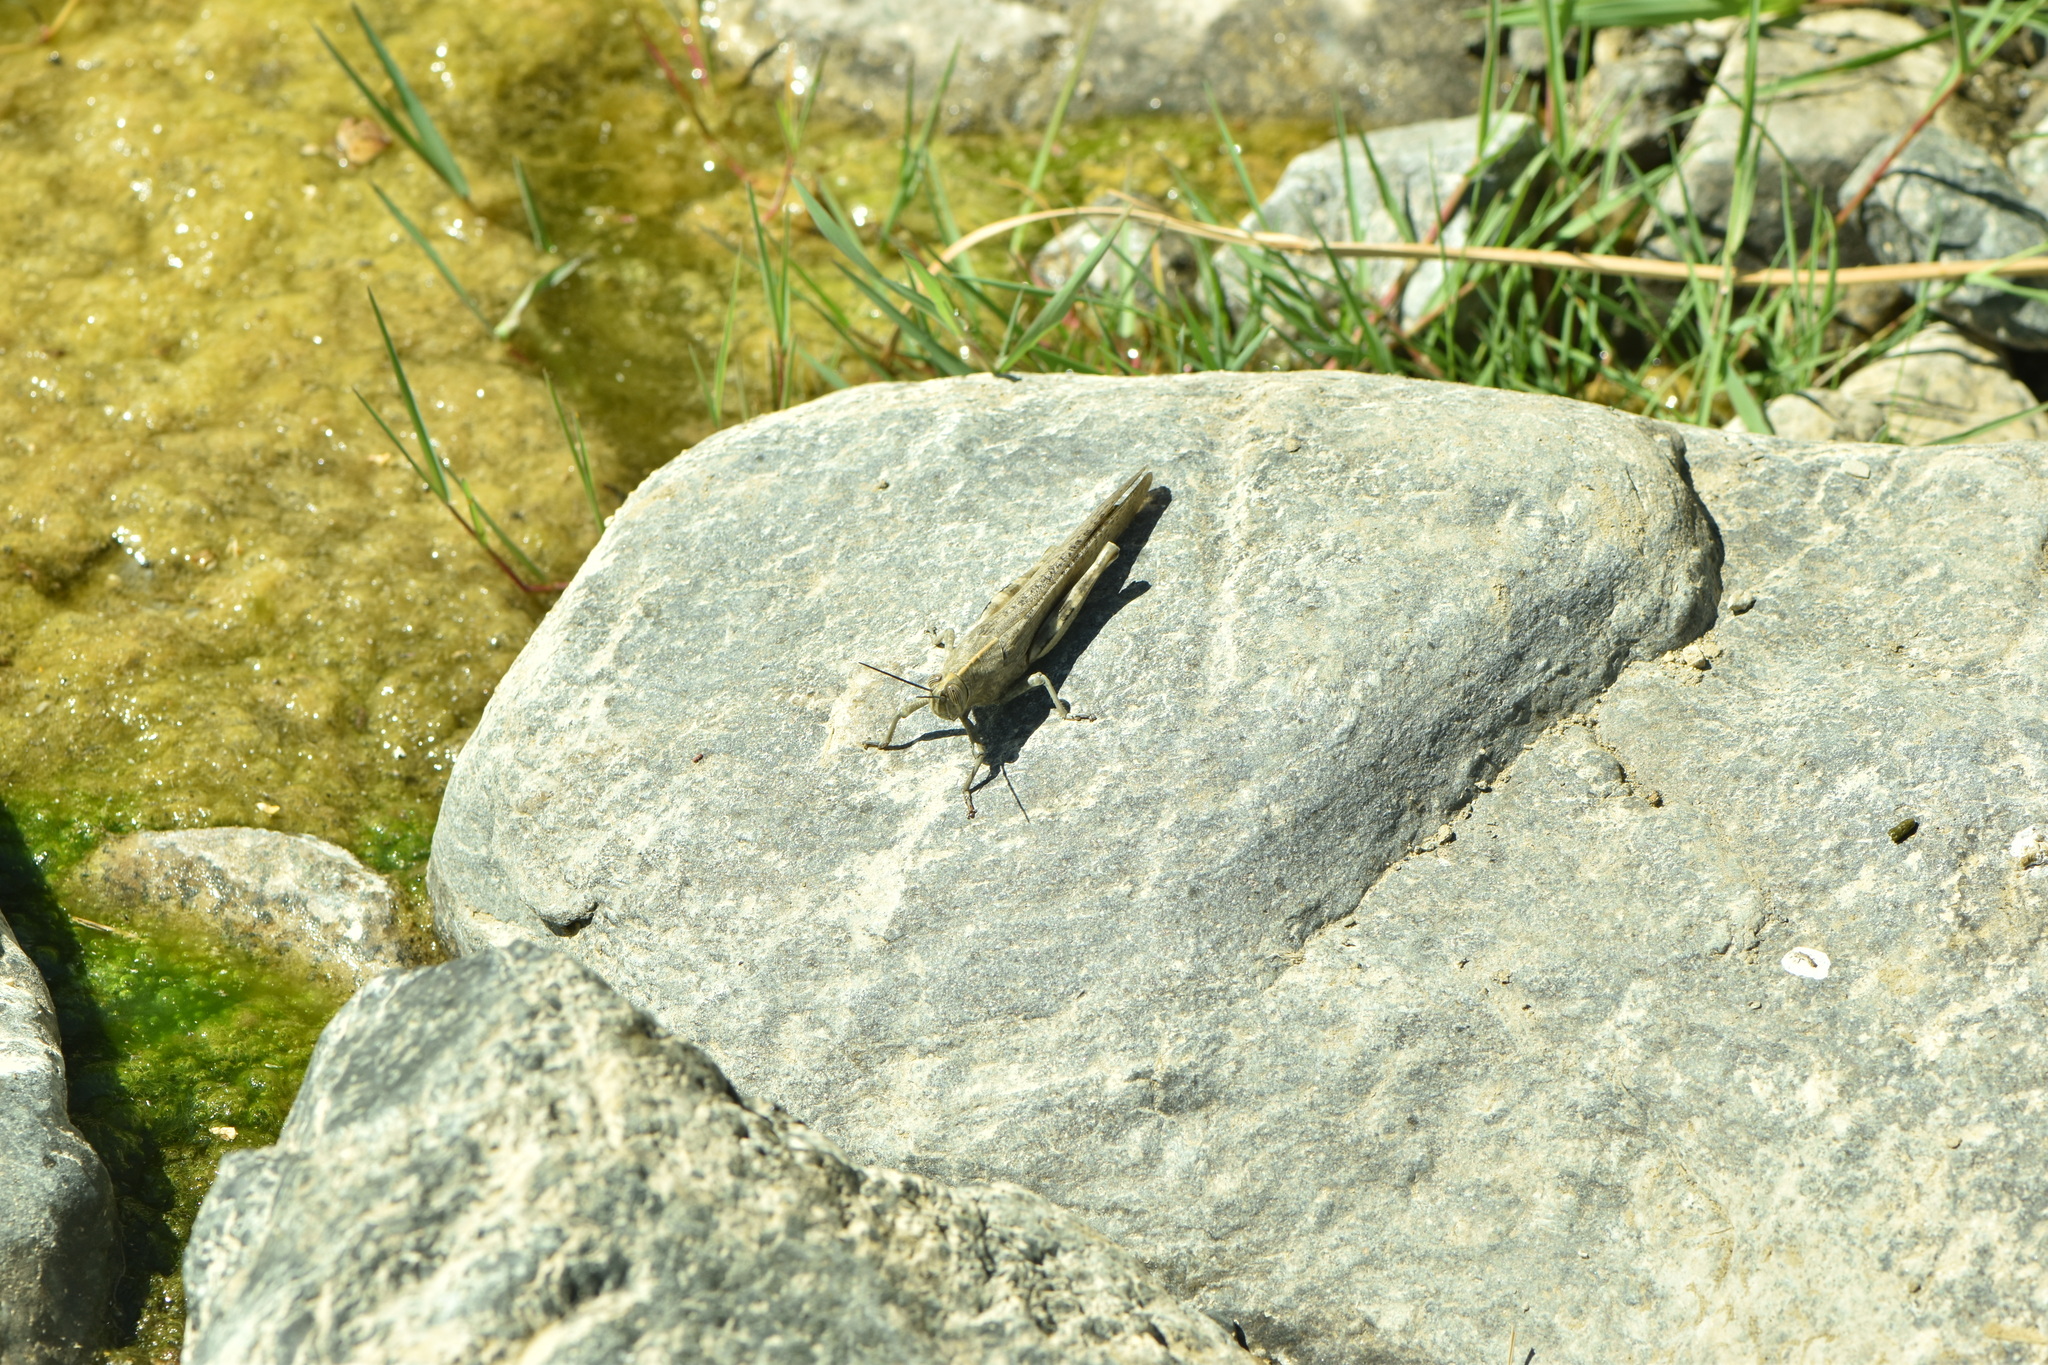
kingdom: Animalia
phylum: Arthropoda
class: Insecta
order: Orthoptera
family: Acrididae
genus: Anacridium
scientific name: Anacridium aegyptium
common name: Egyptian grasshopper
